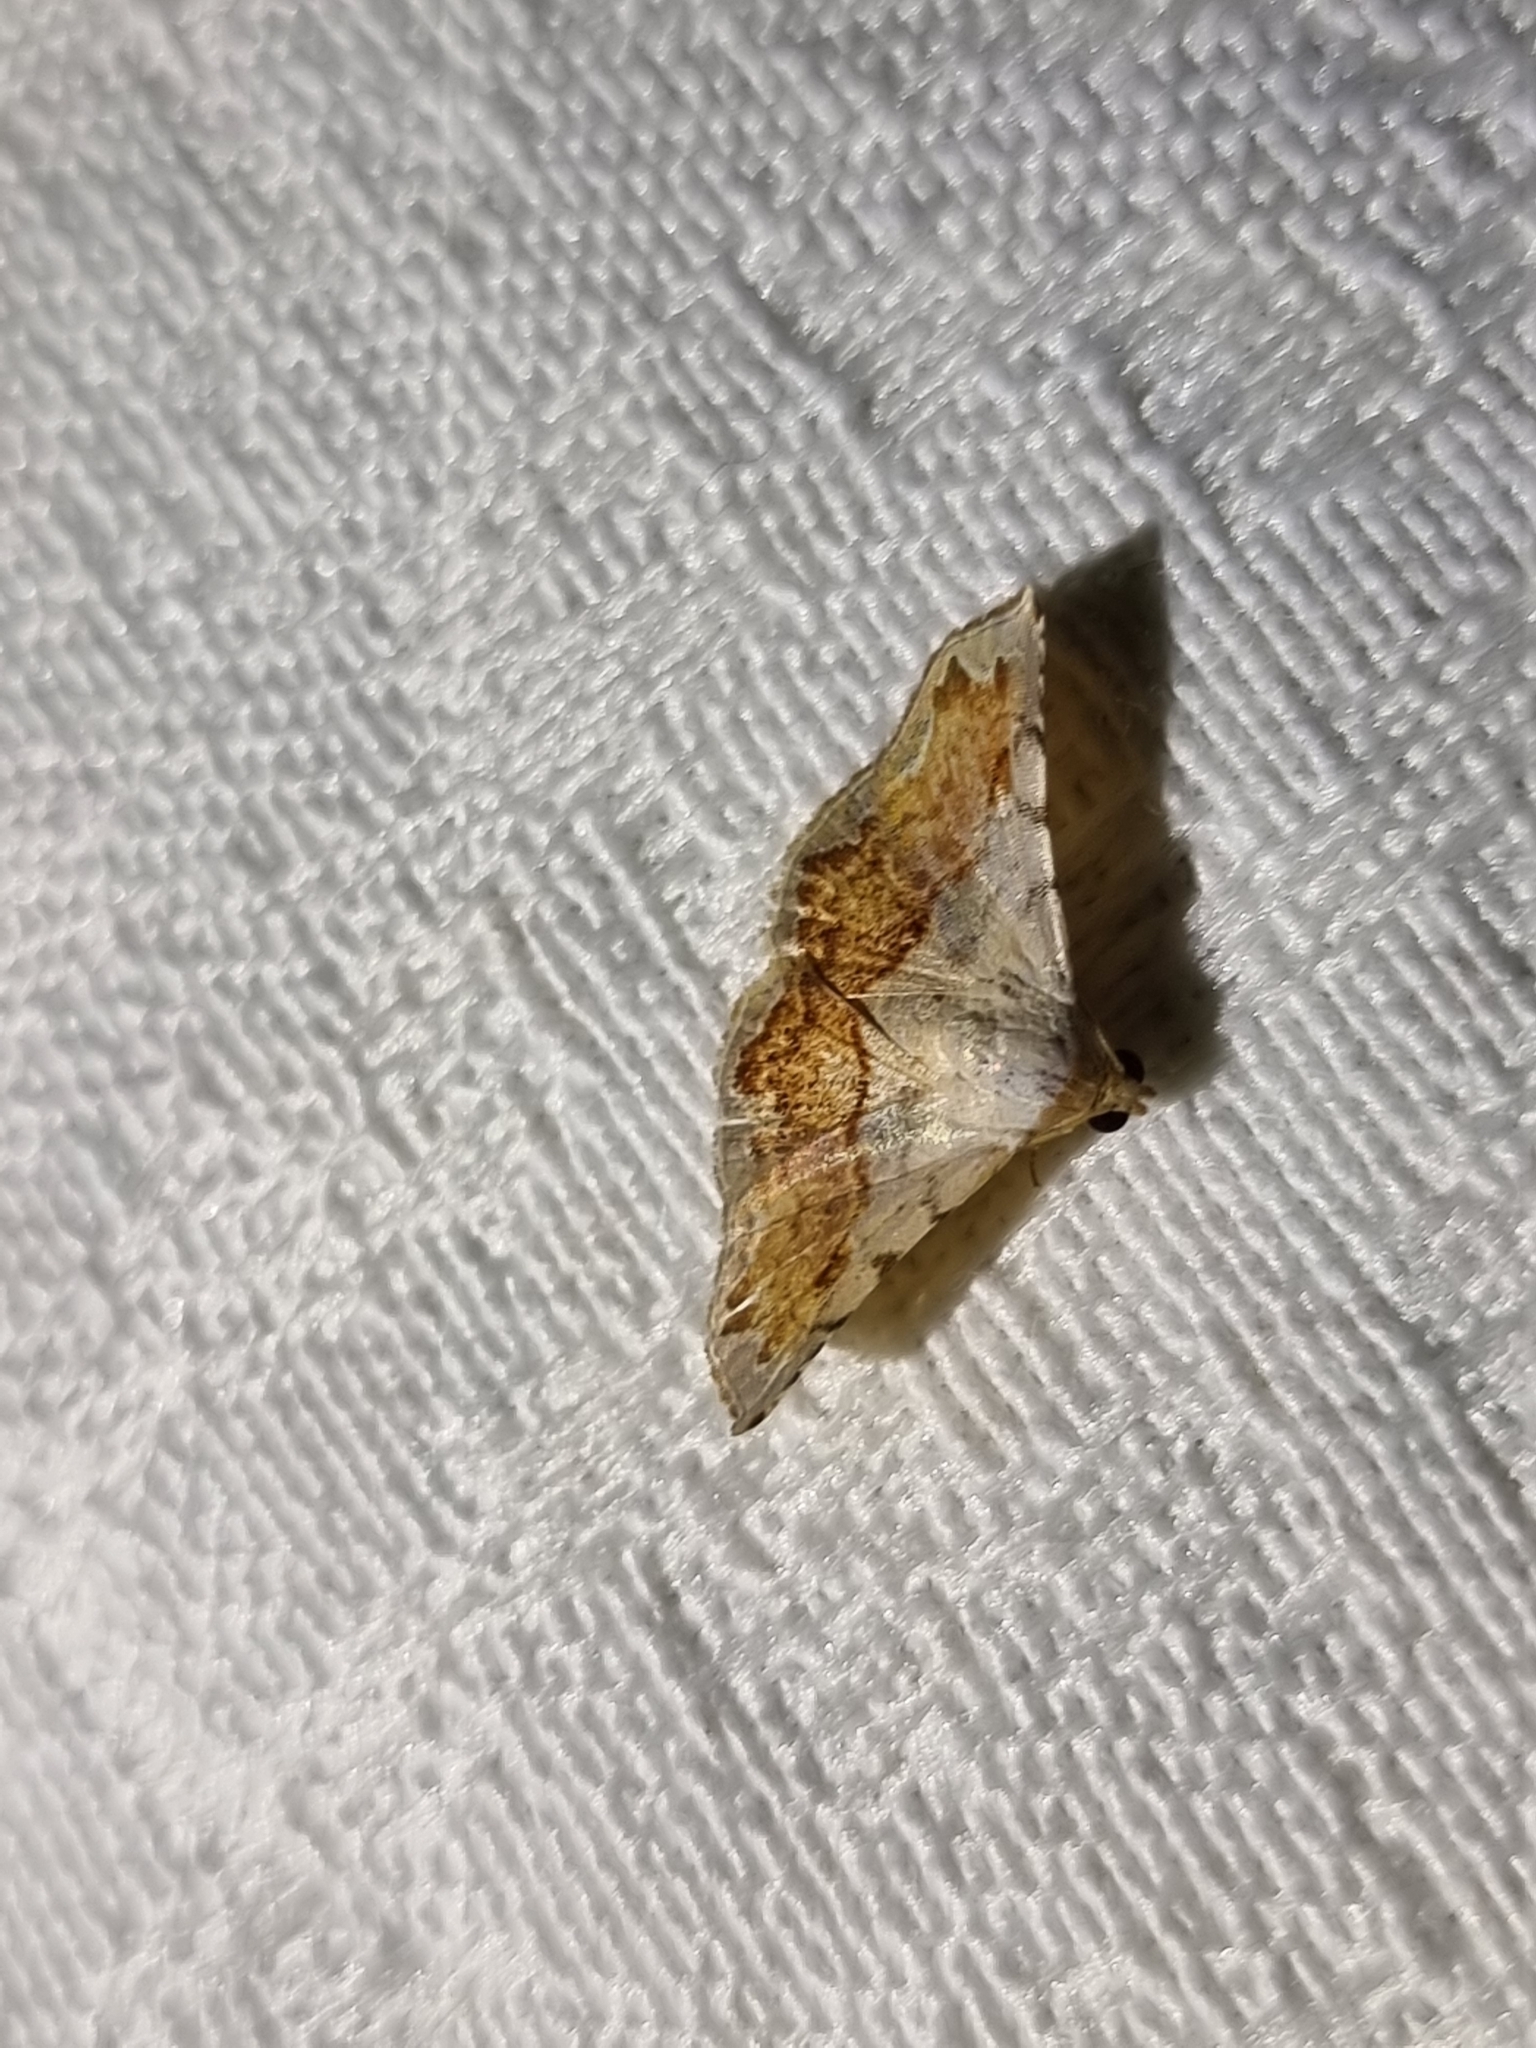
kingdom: Animalia
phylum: Arthropoda
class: Insecta
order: Lepidoptera
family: Noctuidae
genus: Eublemma
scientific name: Eublemma
